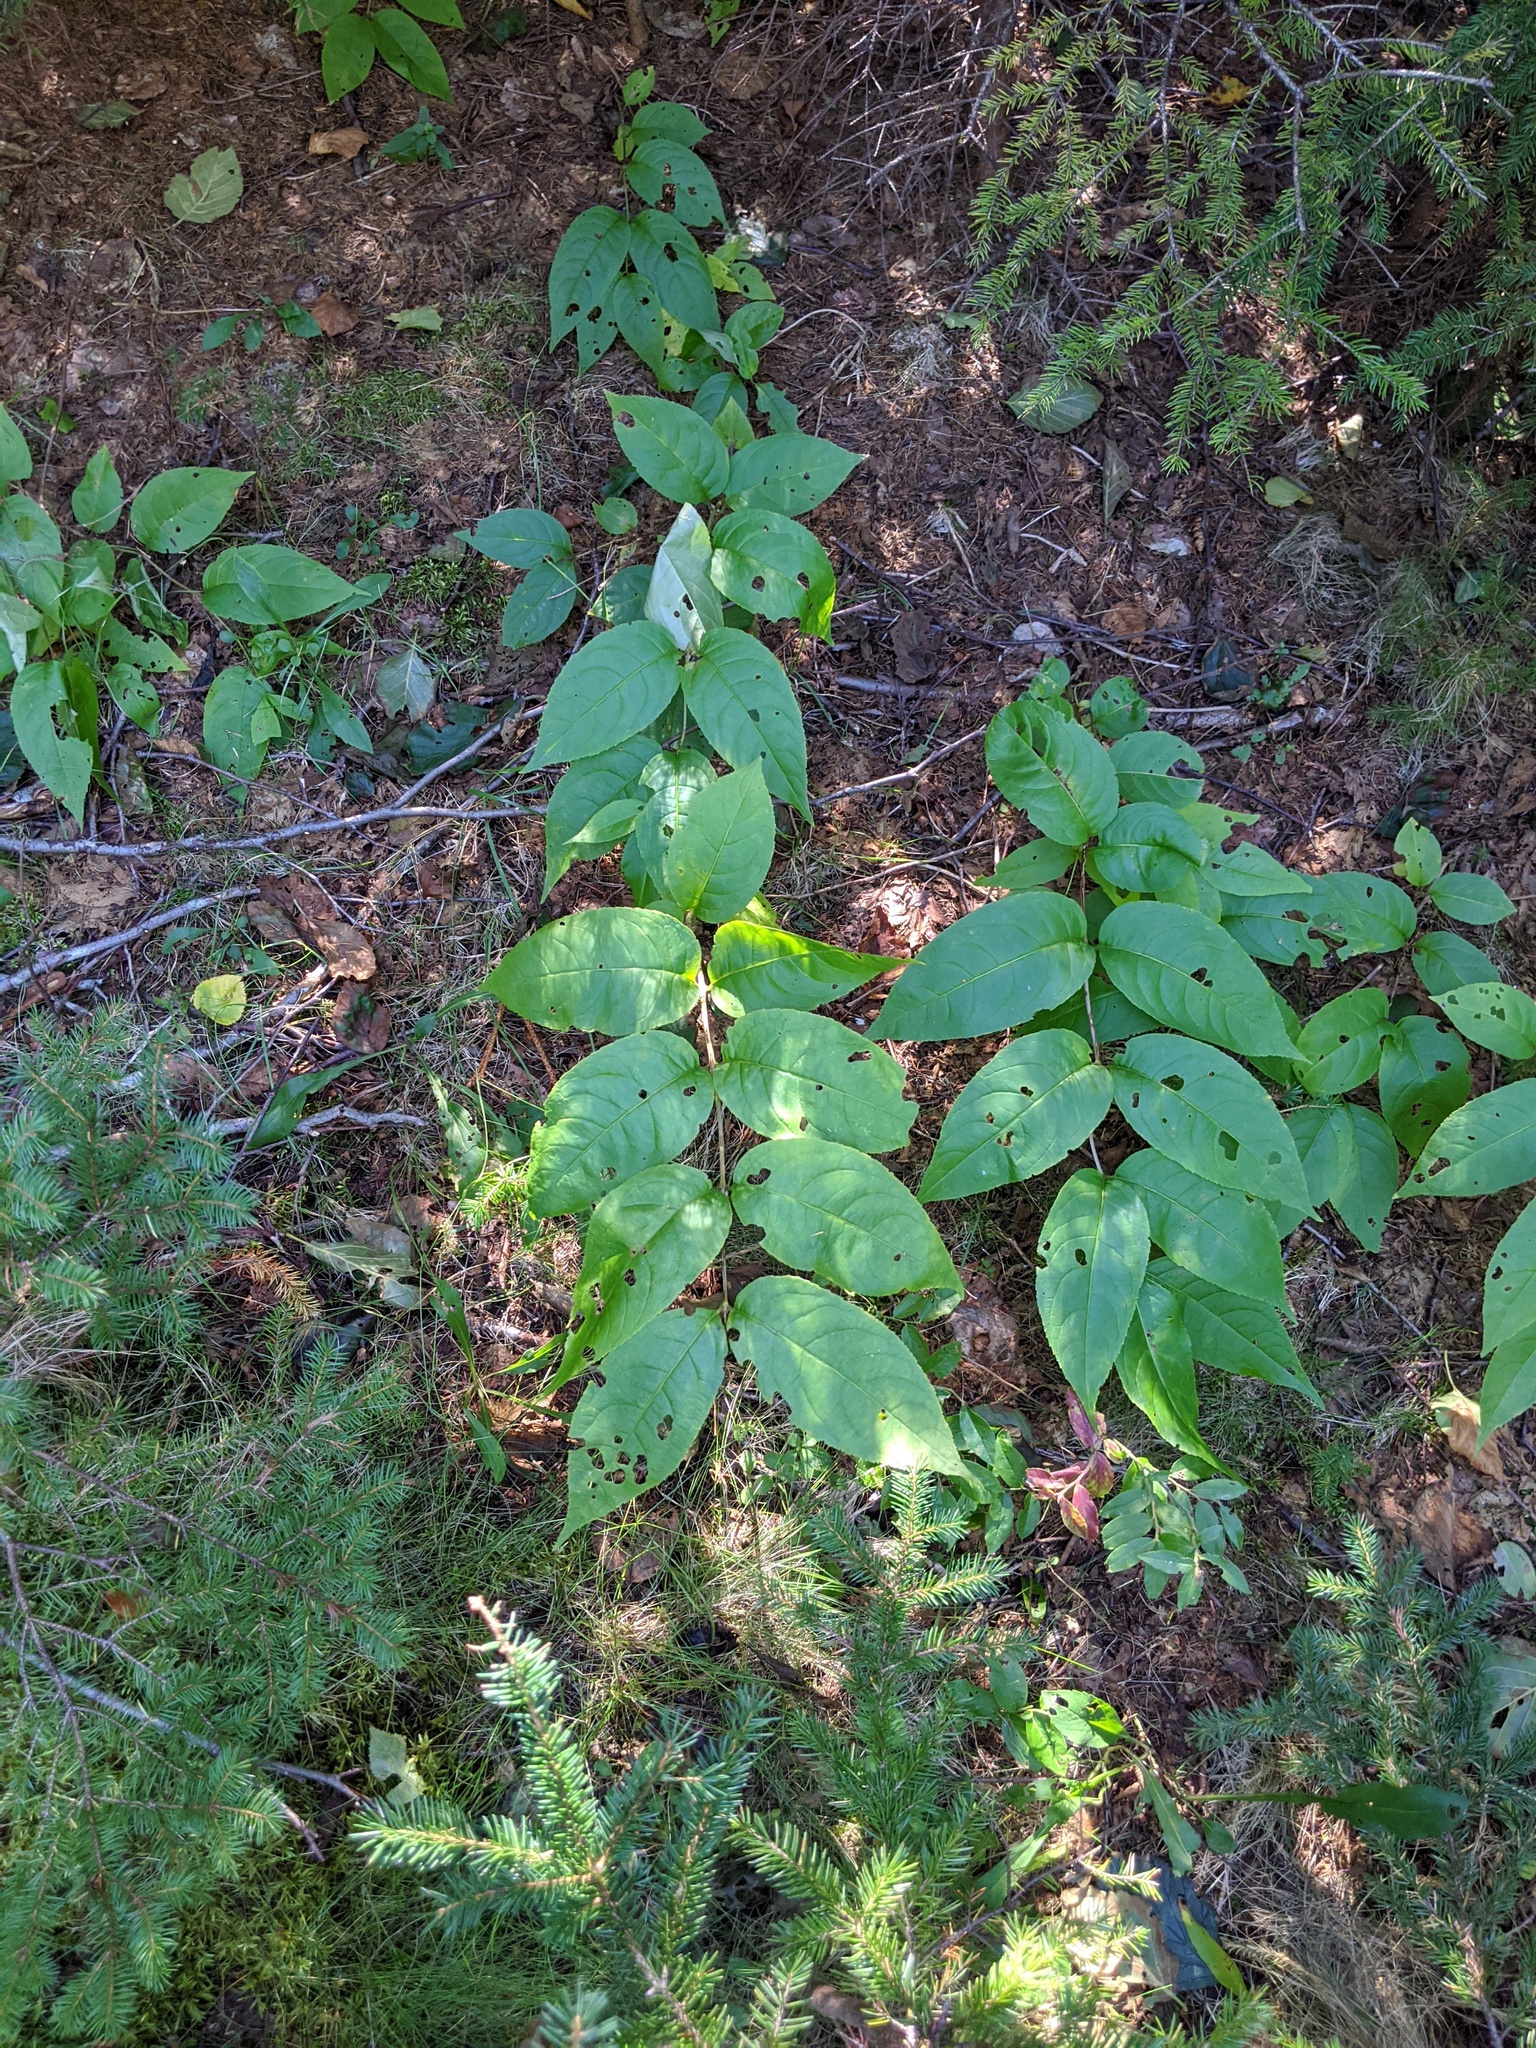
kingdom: Plantae
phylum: Tracheophyta
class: Magnoliopsida
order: Dipsacales
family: Caprifoliaceae
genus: Diervilla
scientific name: Diervilla lonicera
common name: Bush-honeysuckle
